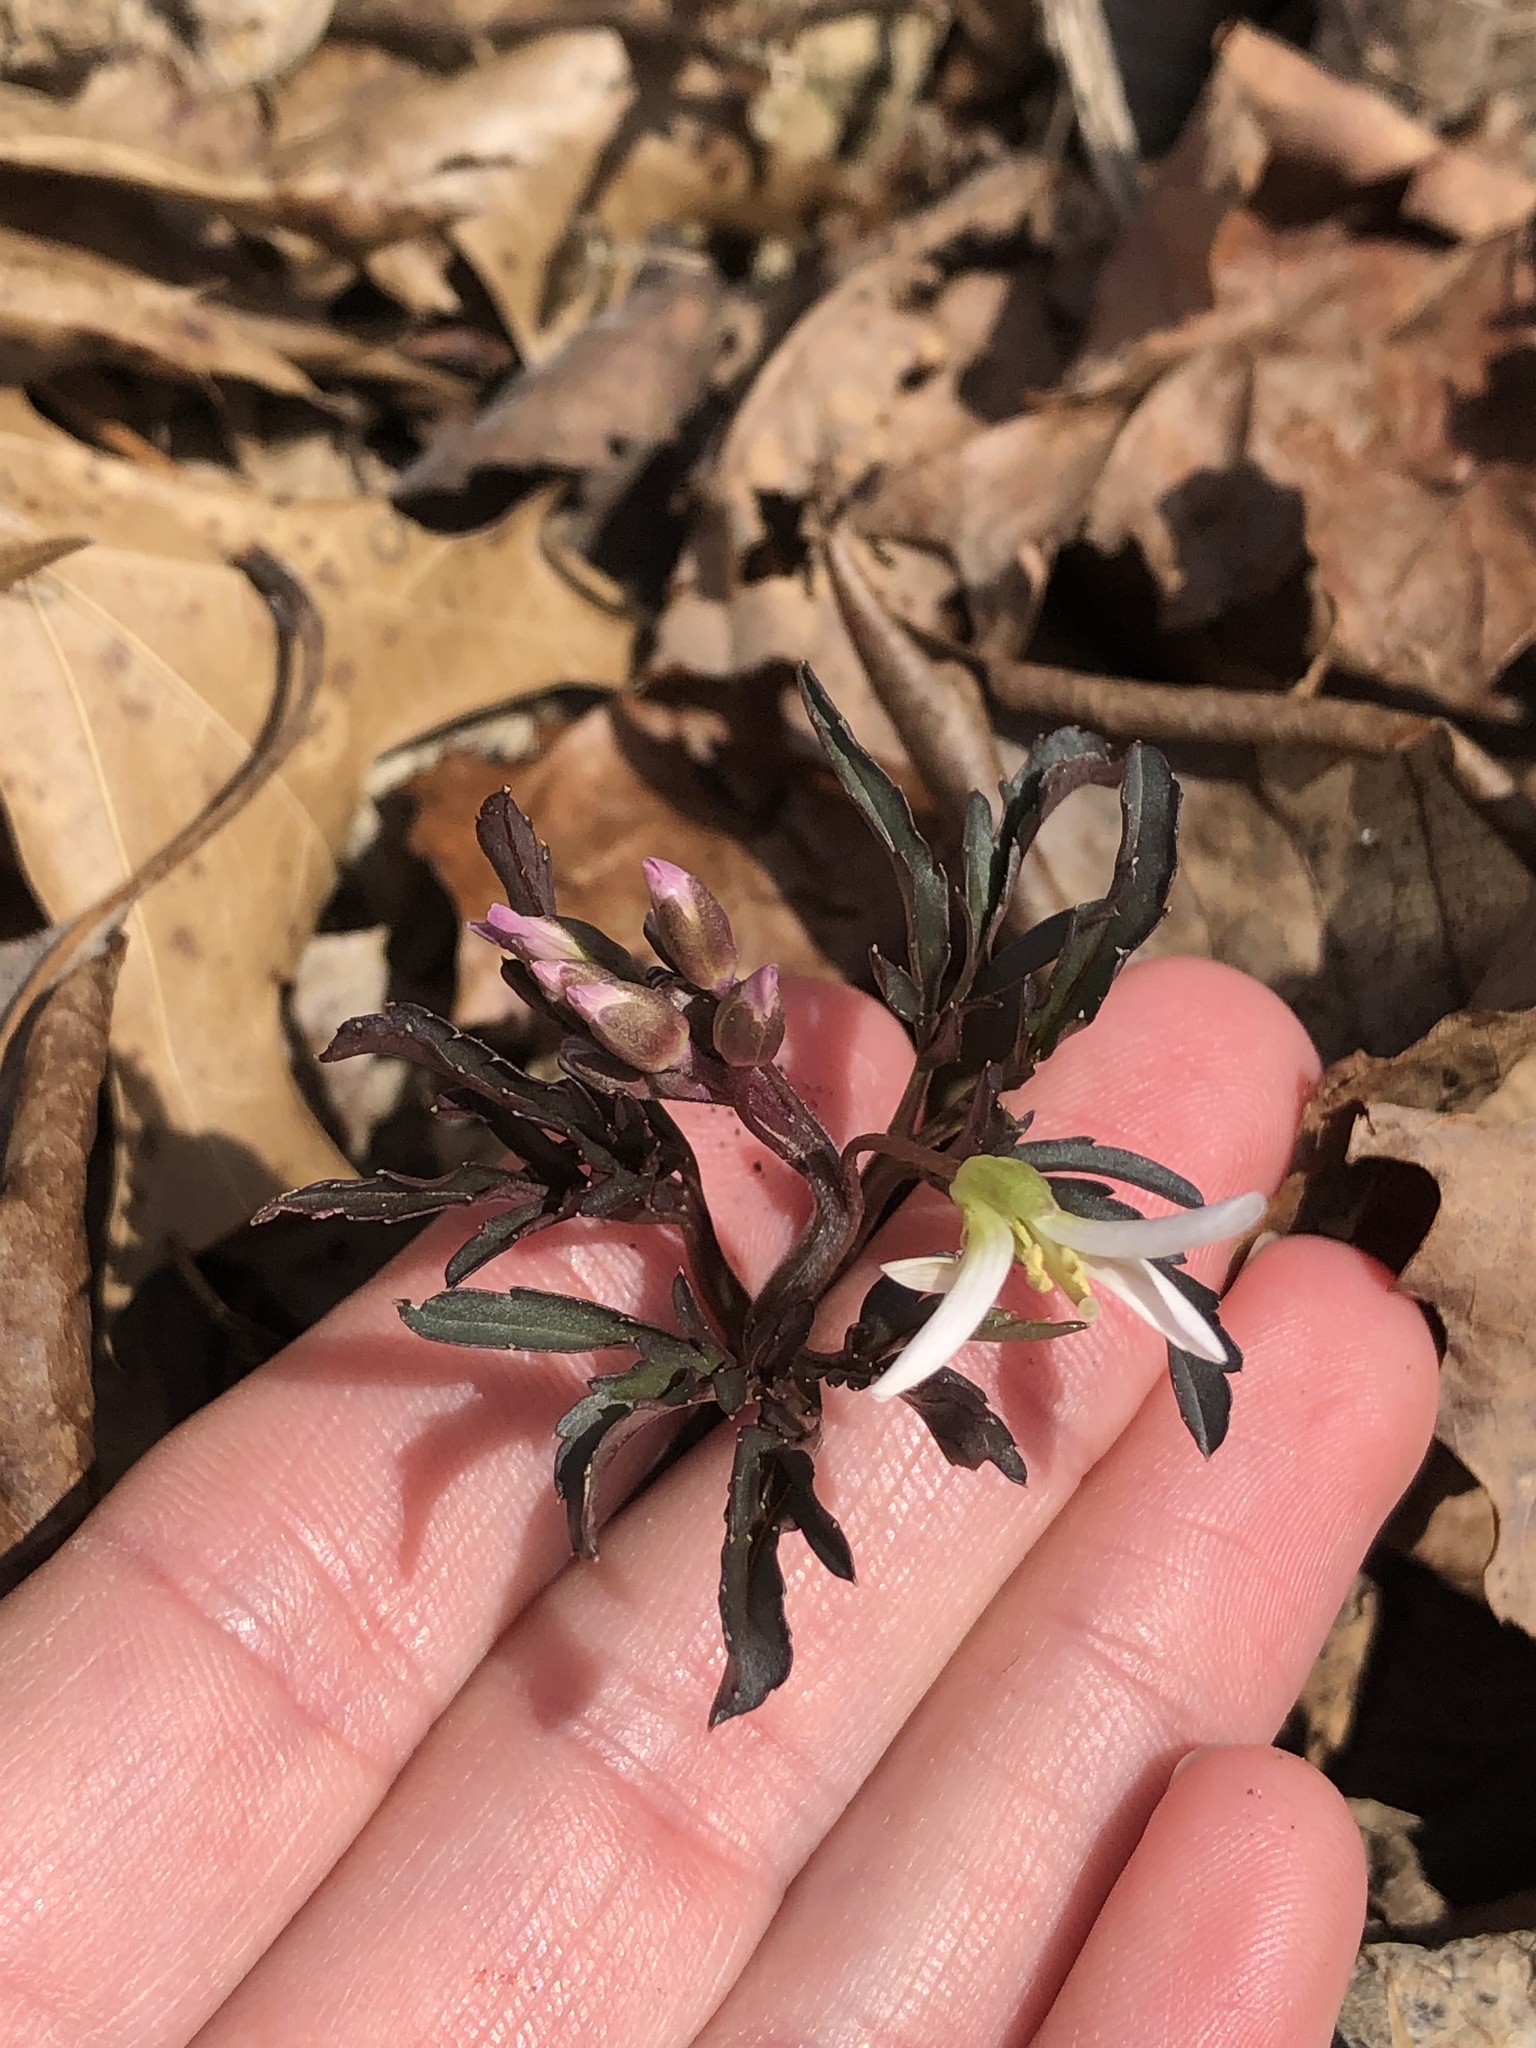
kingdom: Plantae
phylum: Tracheophyta
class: Magnoliopsida
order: Brassicales
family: Brassicaceae
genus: Cardamine
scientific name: Cardamine concatenata
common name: Cut-leaf toothcup
